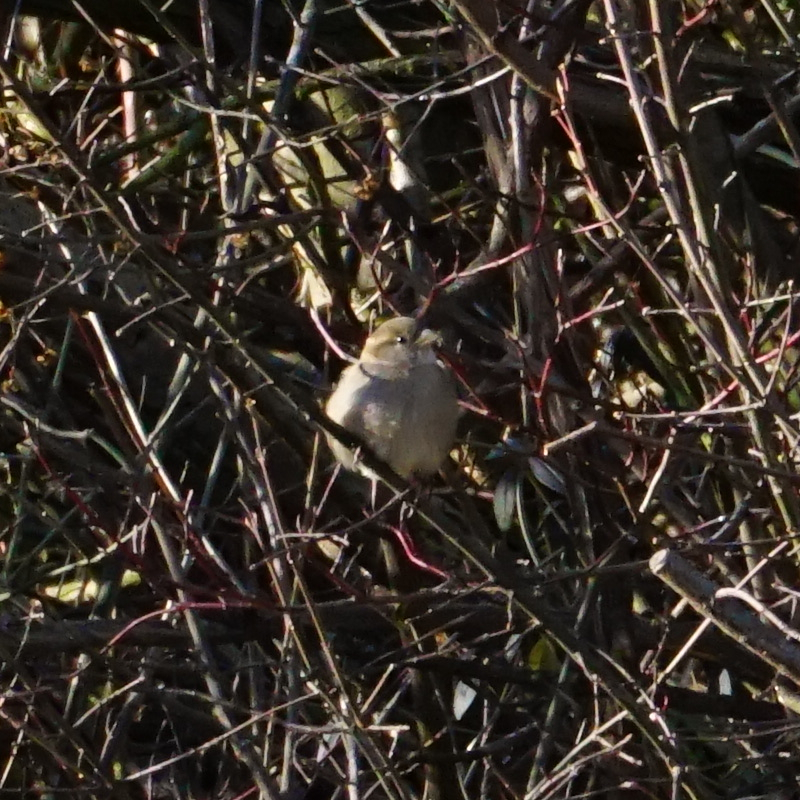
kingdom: Animalia
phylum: Chordata
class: Aves
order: Passeriformes
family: Passeridae
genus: Passer
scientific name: Passer domesticus
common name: House sparrow
